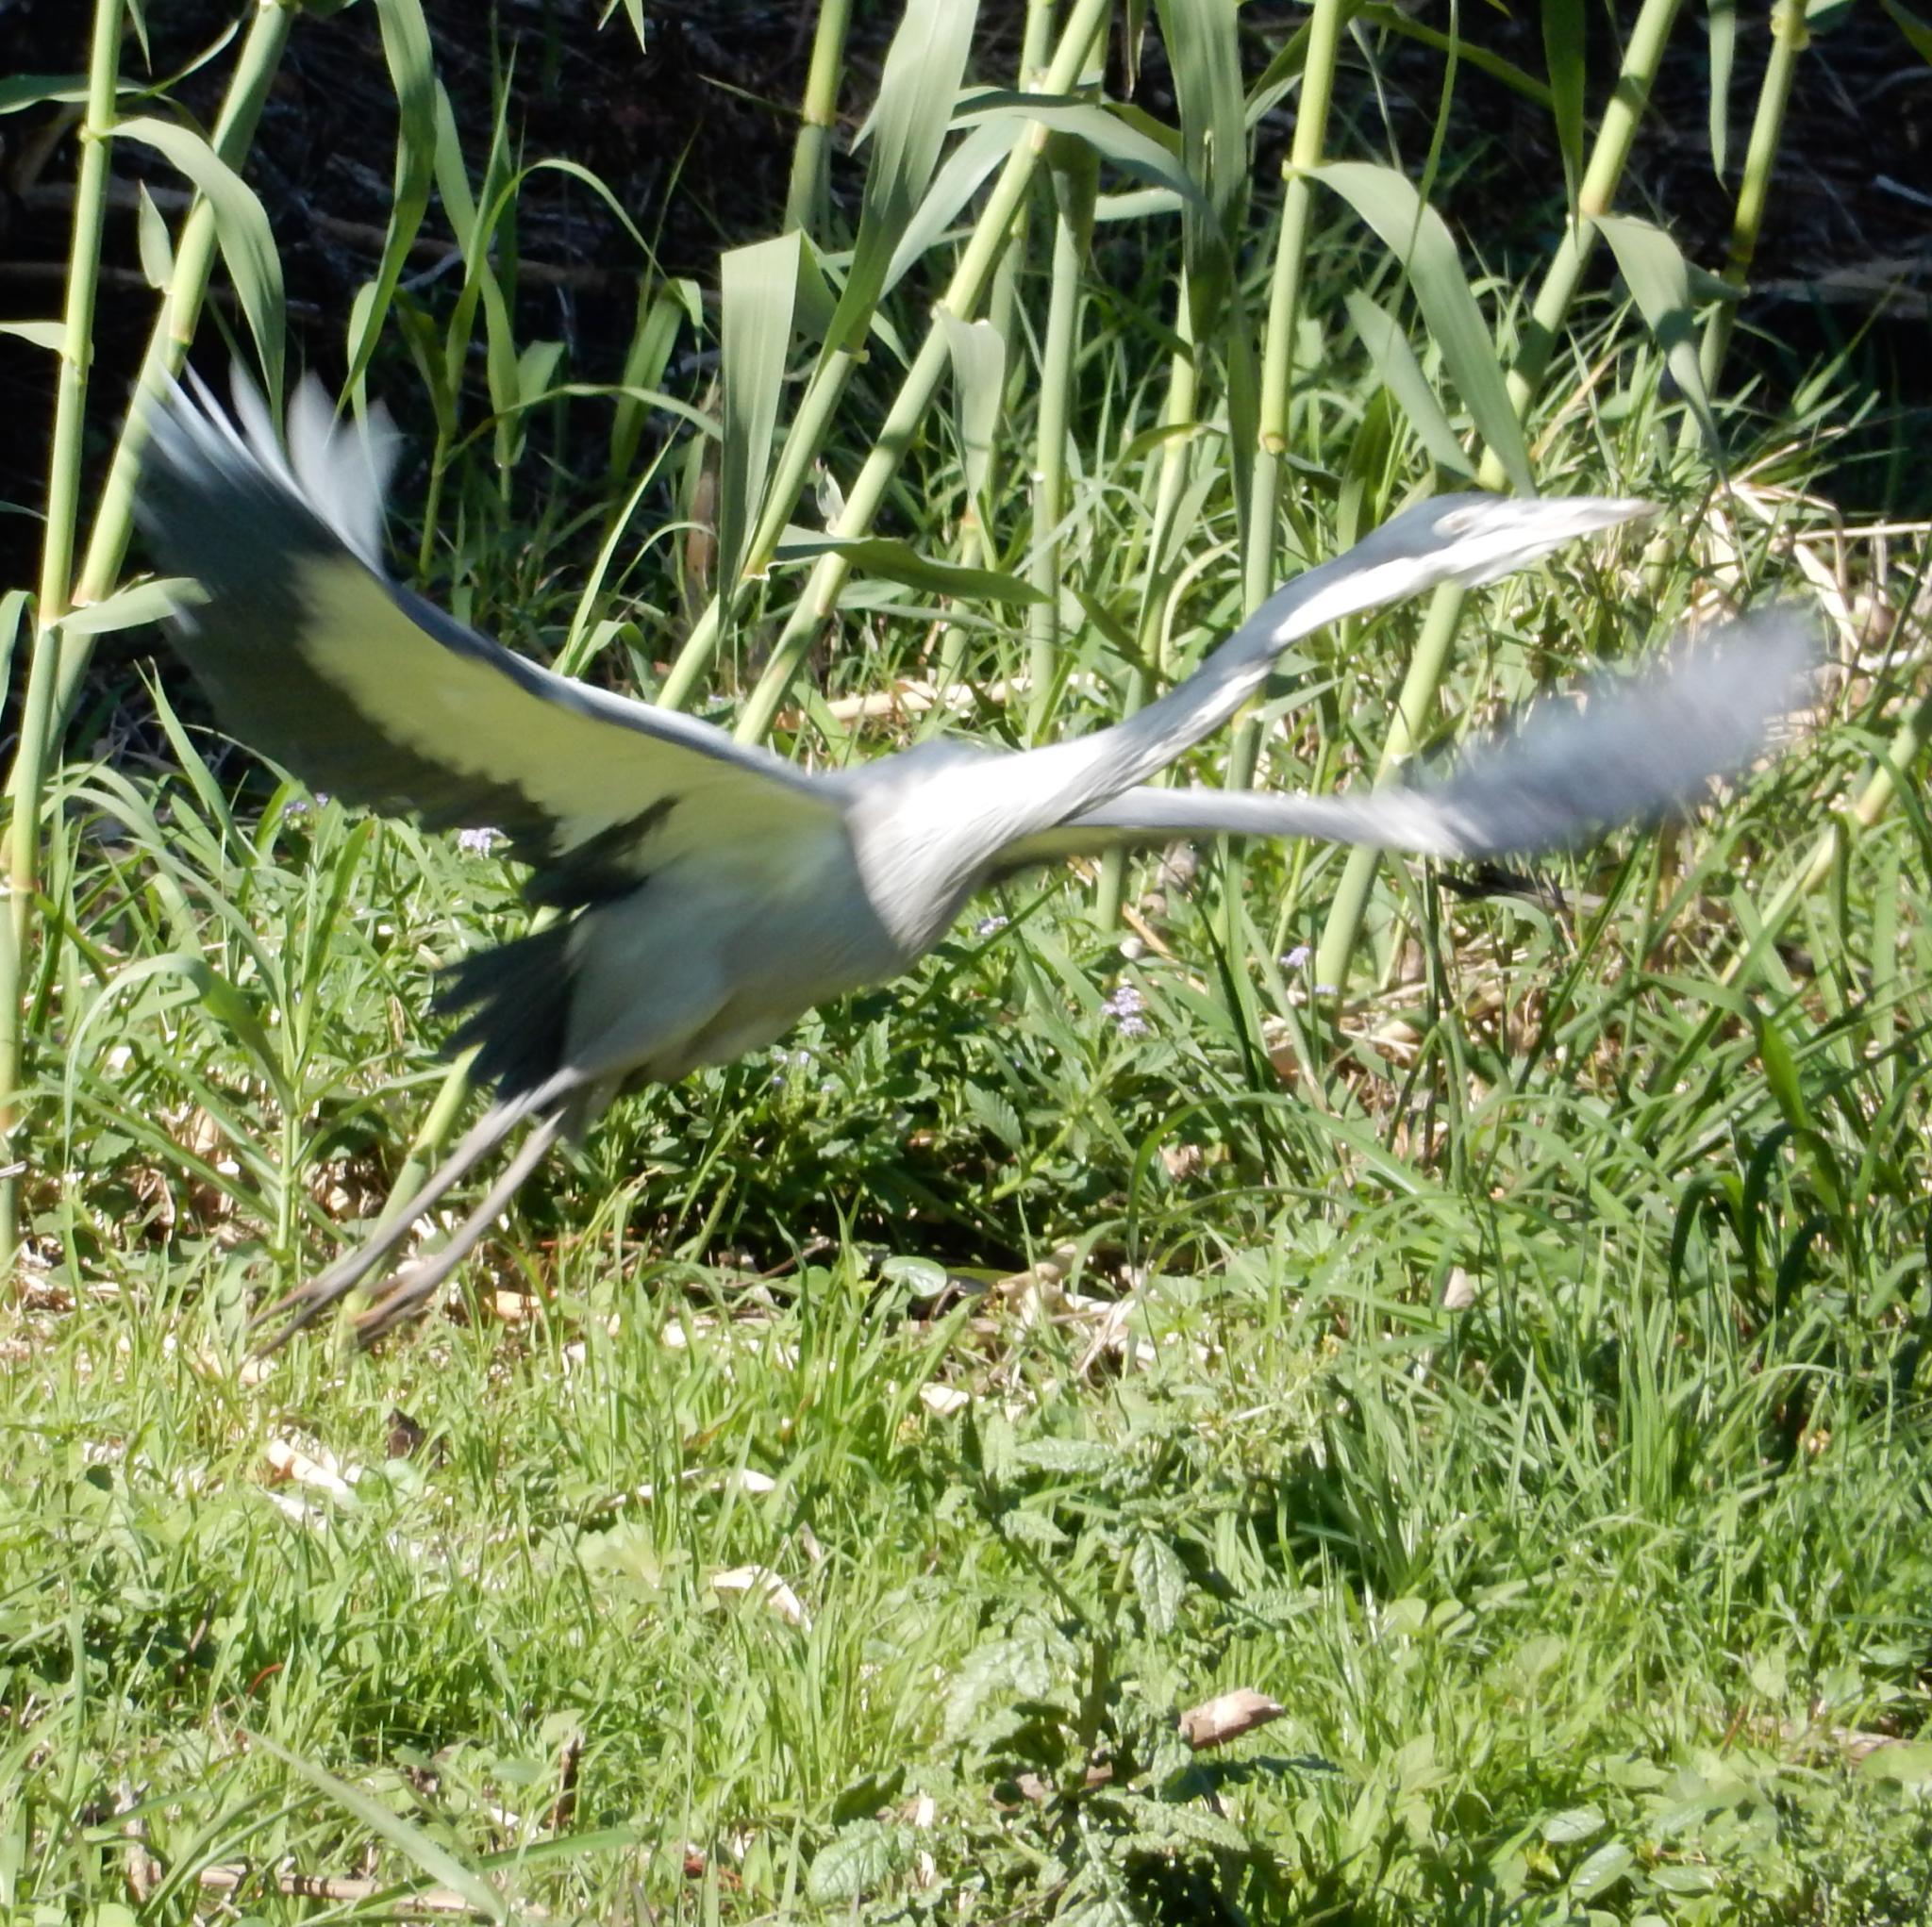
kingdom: Animalia
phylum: Chordata
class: Aves
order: Pelecaniformes
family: Ardeidae
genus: Ardea
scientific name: Ardea melanocephala
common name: Black-headed heron
